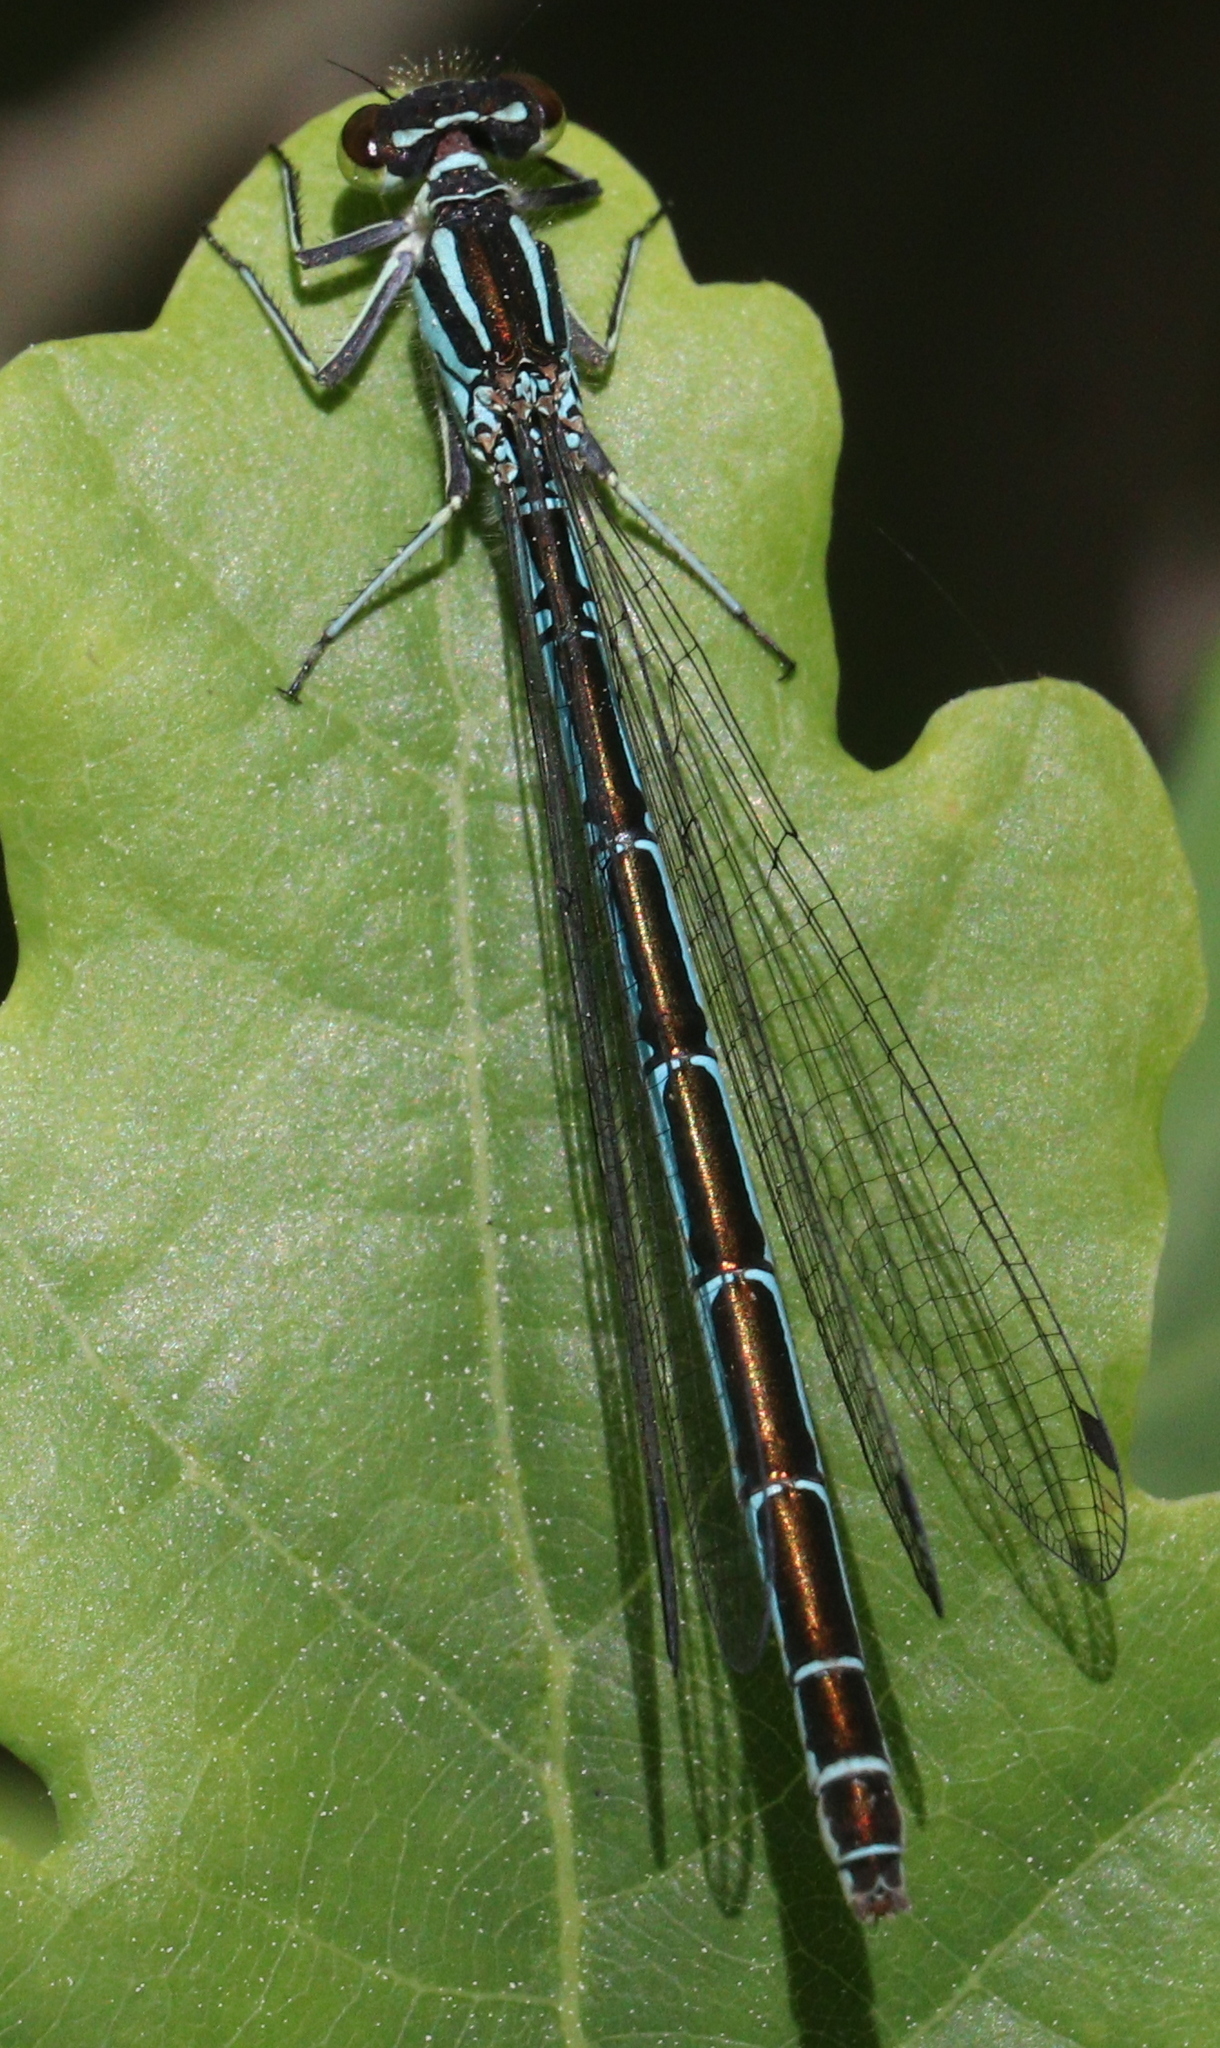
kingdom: Animalia
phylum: Arthropoda
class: Insecta
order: Odonata
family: Coenagrionidae
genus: Coenagrion
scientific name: Coenagrion puella
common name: Azure damselfly
